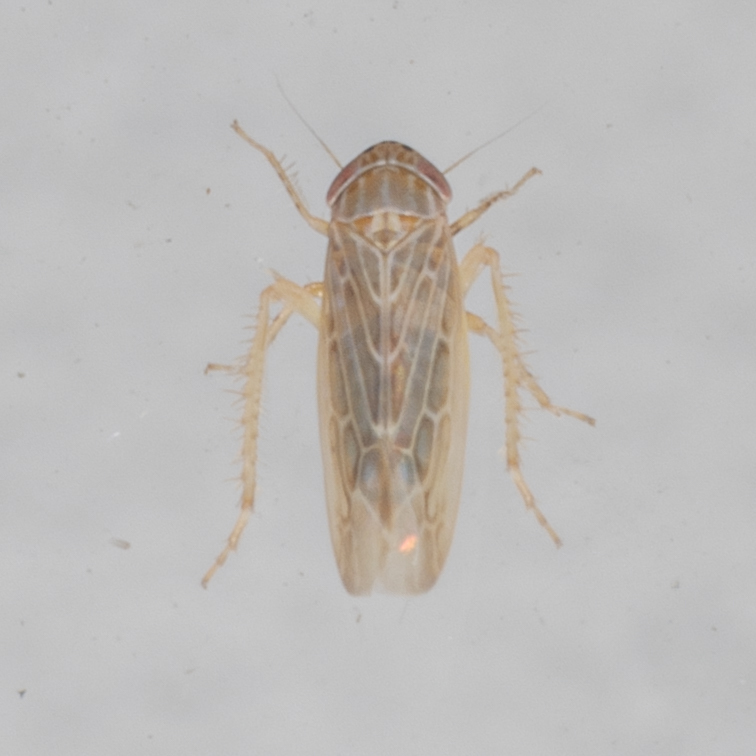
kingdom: Animalia
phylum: Arthropoda
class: Insecta
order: Hemiptera
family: Cicadellidae
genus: Graminella
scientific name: Graminella sonora
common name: Lesser lawn leafhopper
